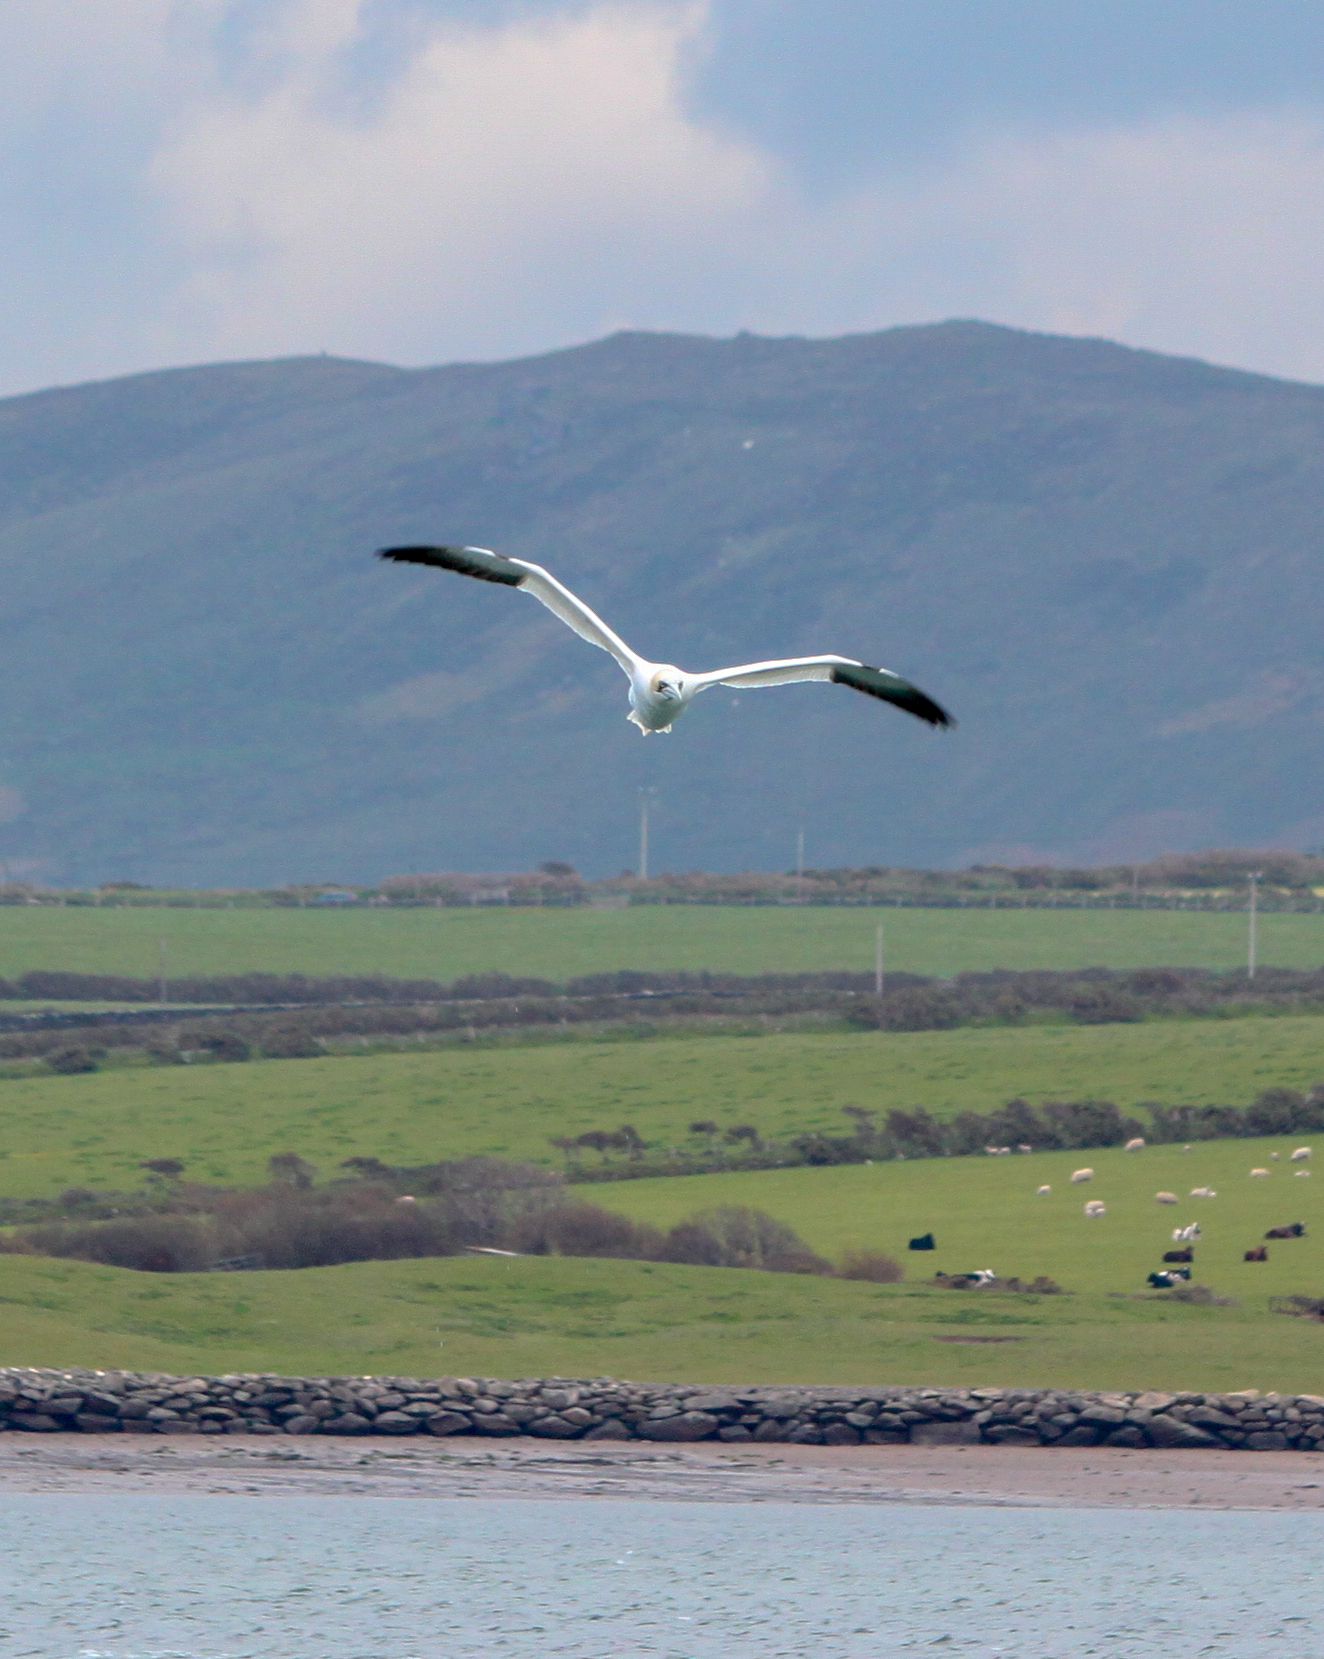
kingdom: Animalia
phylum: Chordata
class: Aves
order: Suliformes
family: Sulidae
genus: Morus
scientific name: Morus bassanus
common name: Northern gannet
